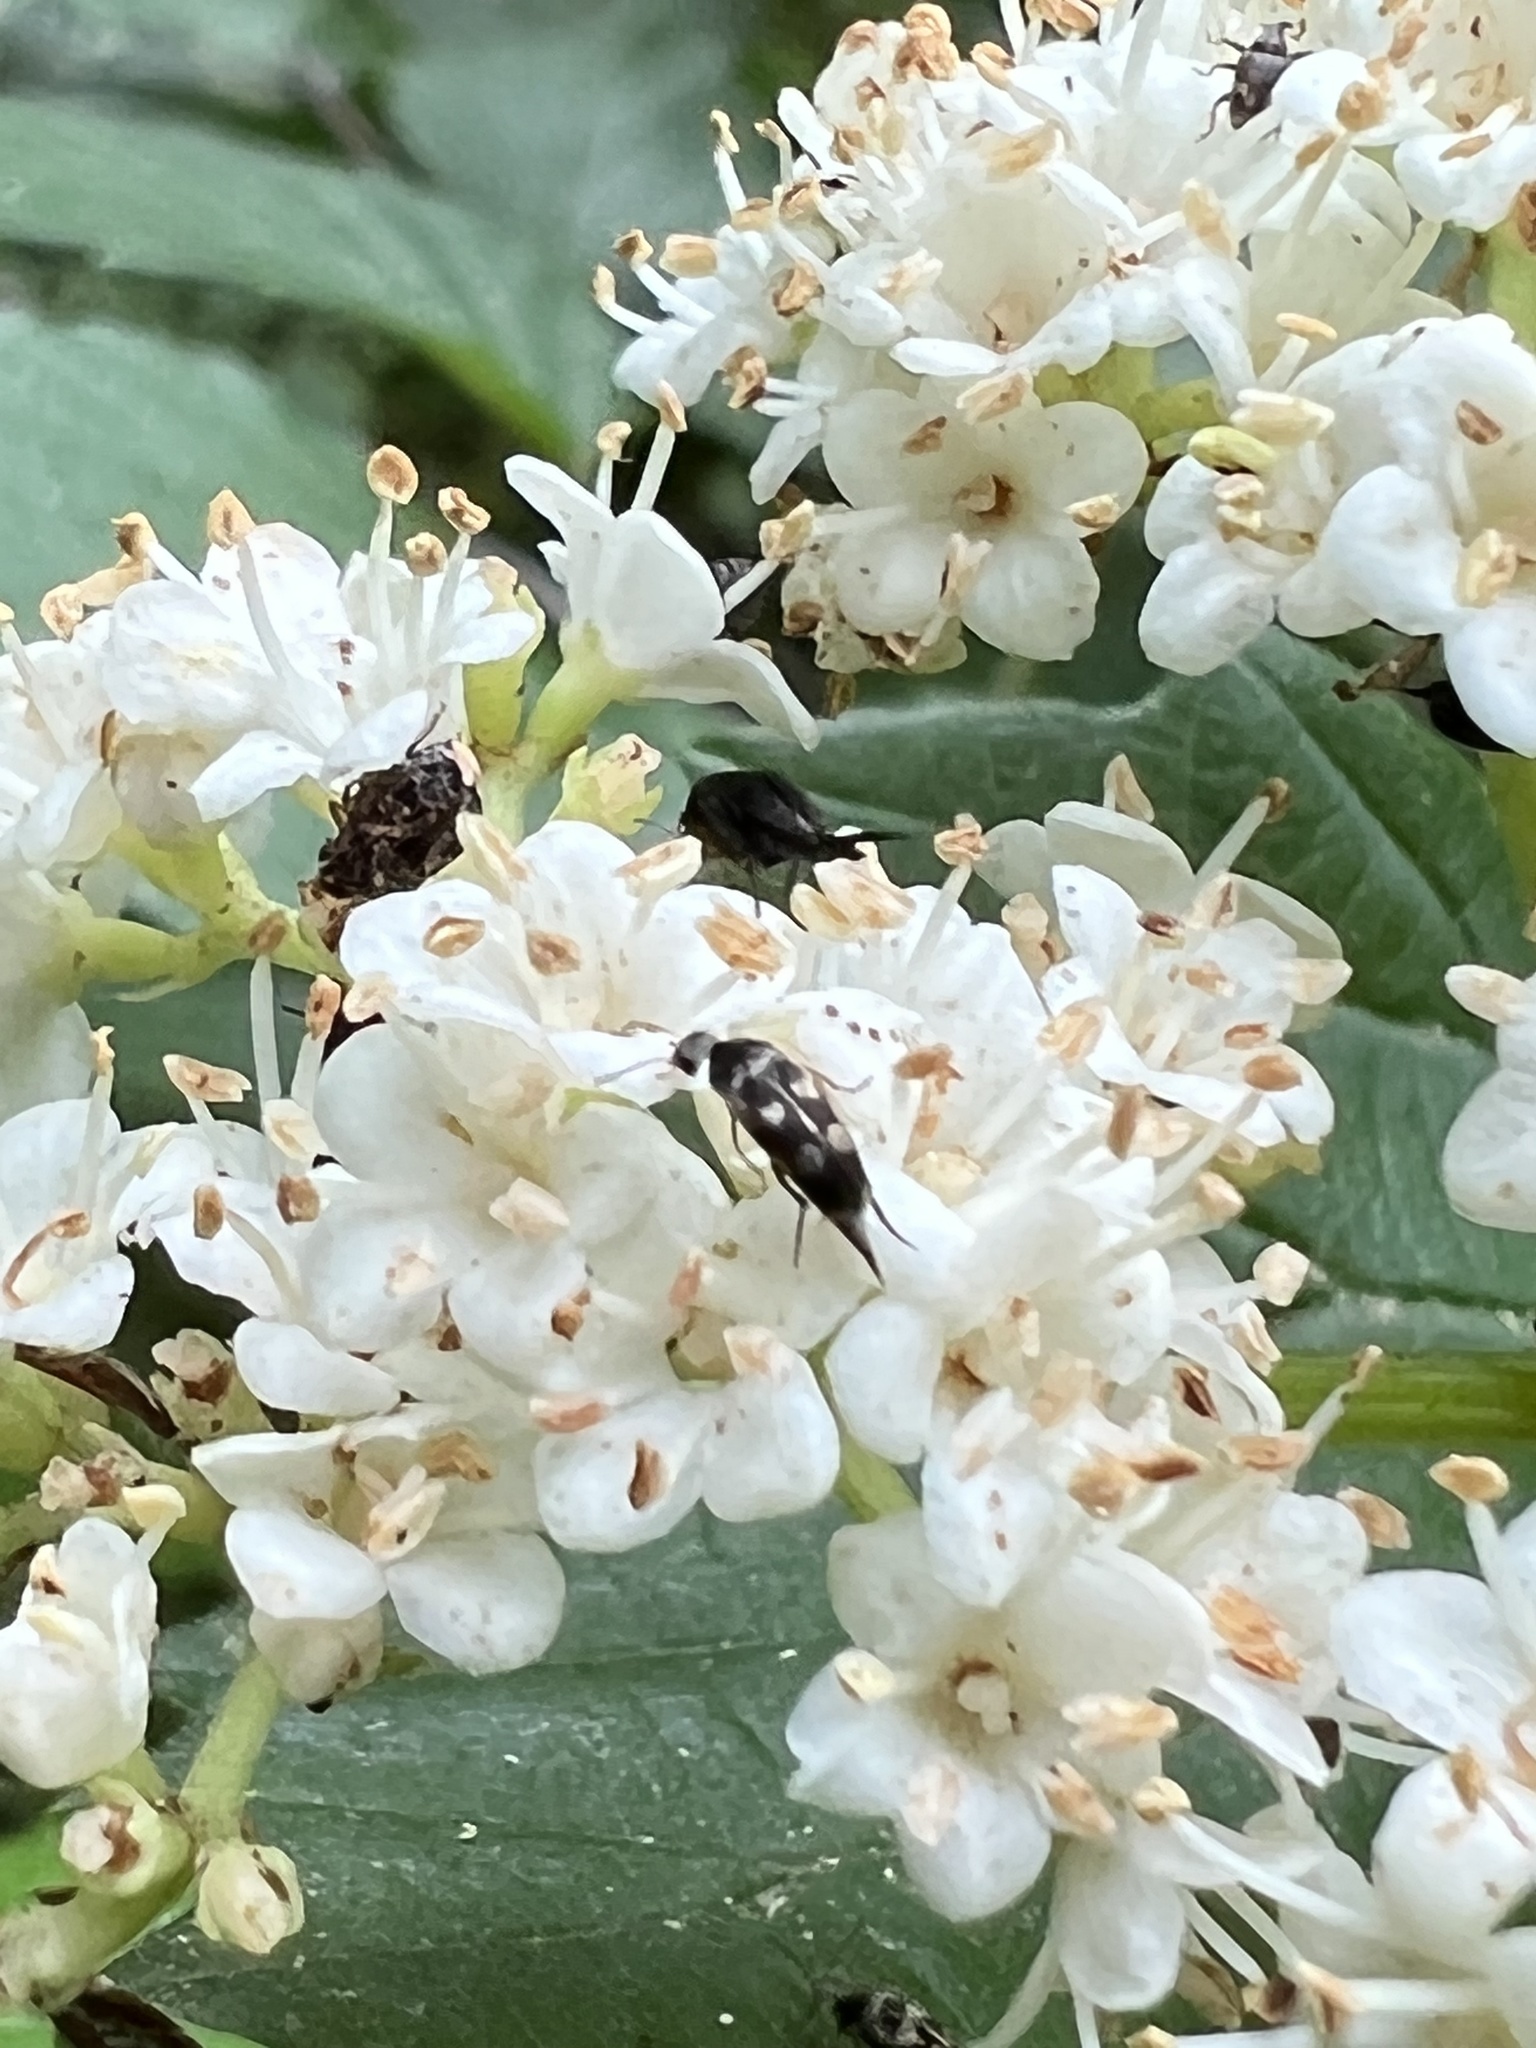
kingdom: Animalia
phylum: Arthropoda
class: Insecta
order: Coleoptera
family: Mordellidae
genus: Falsomordellistena
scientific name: Falsomordellistena pubescens
